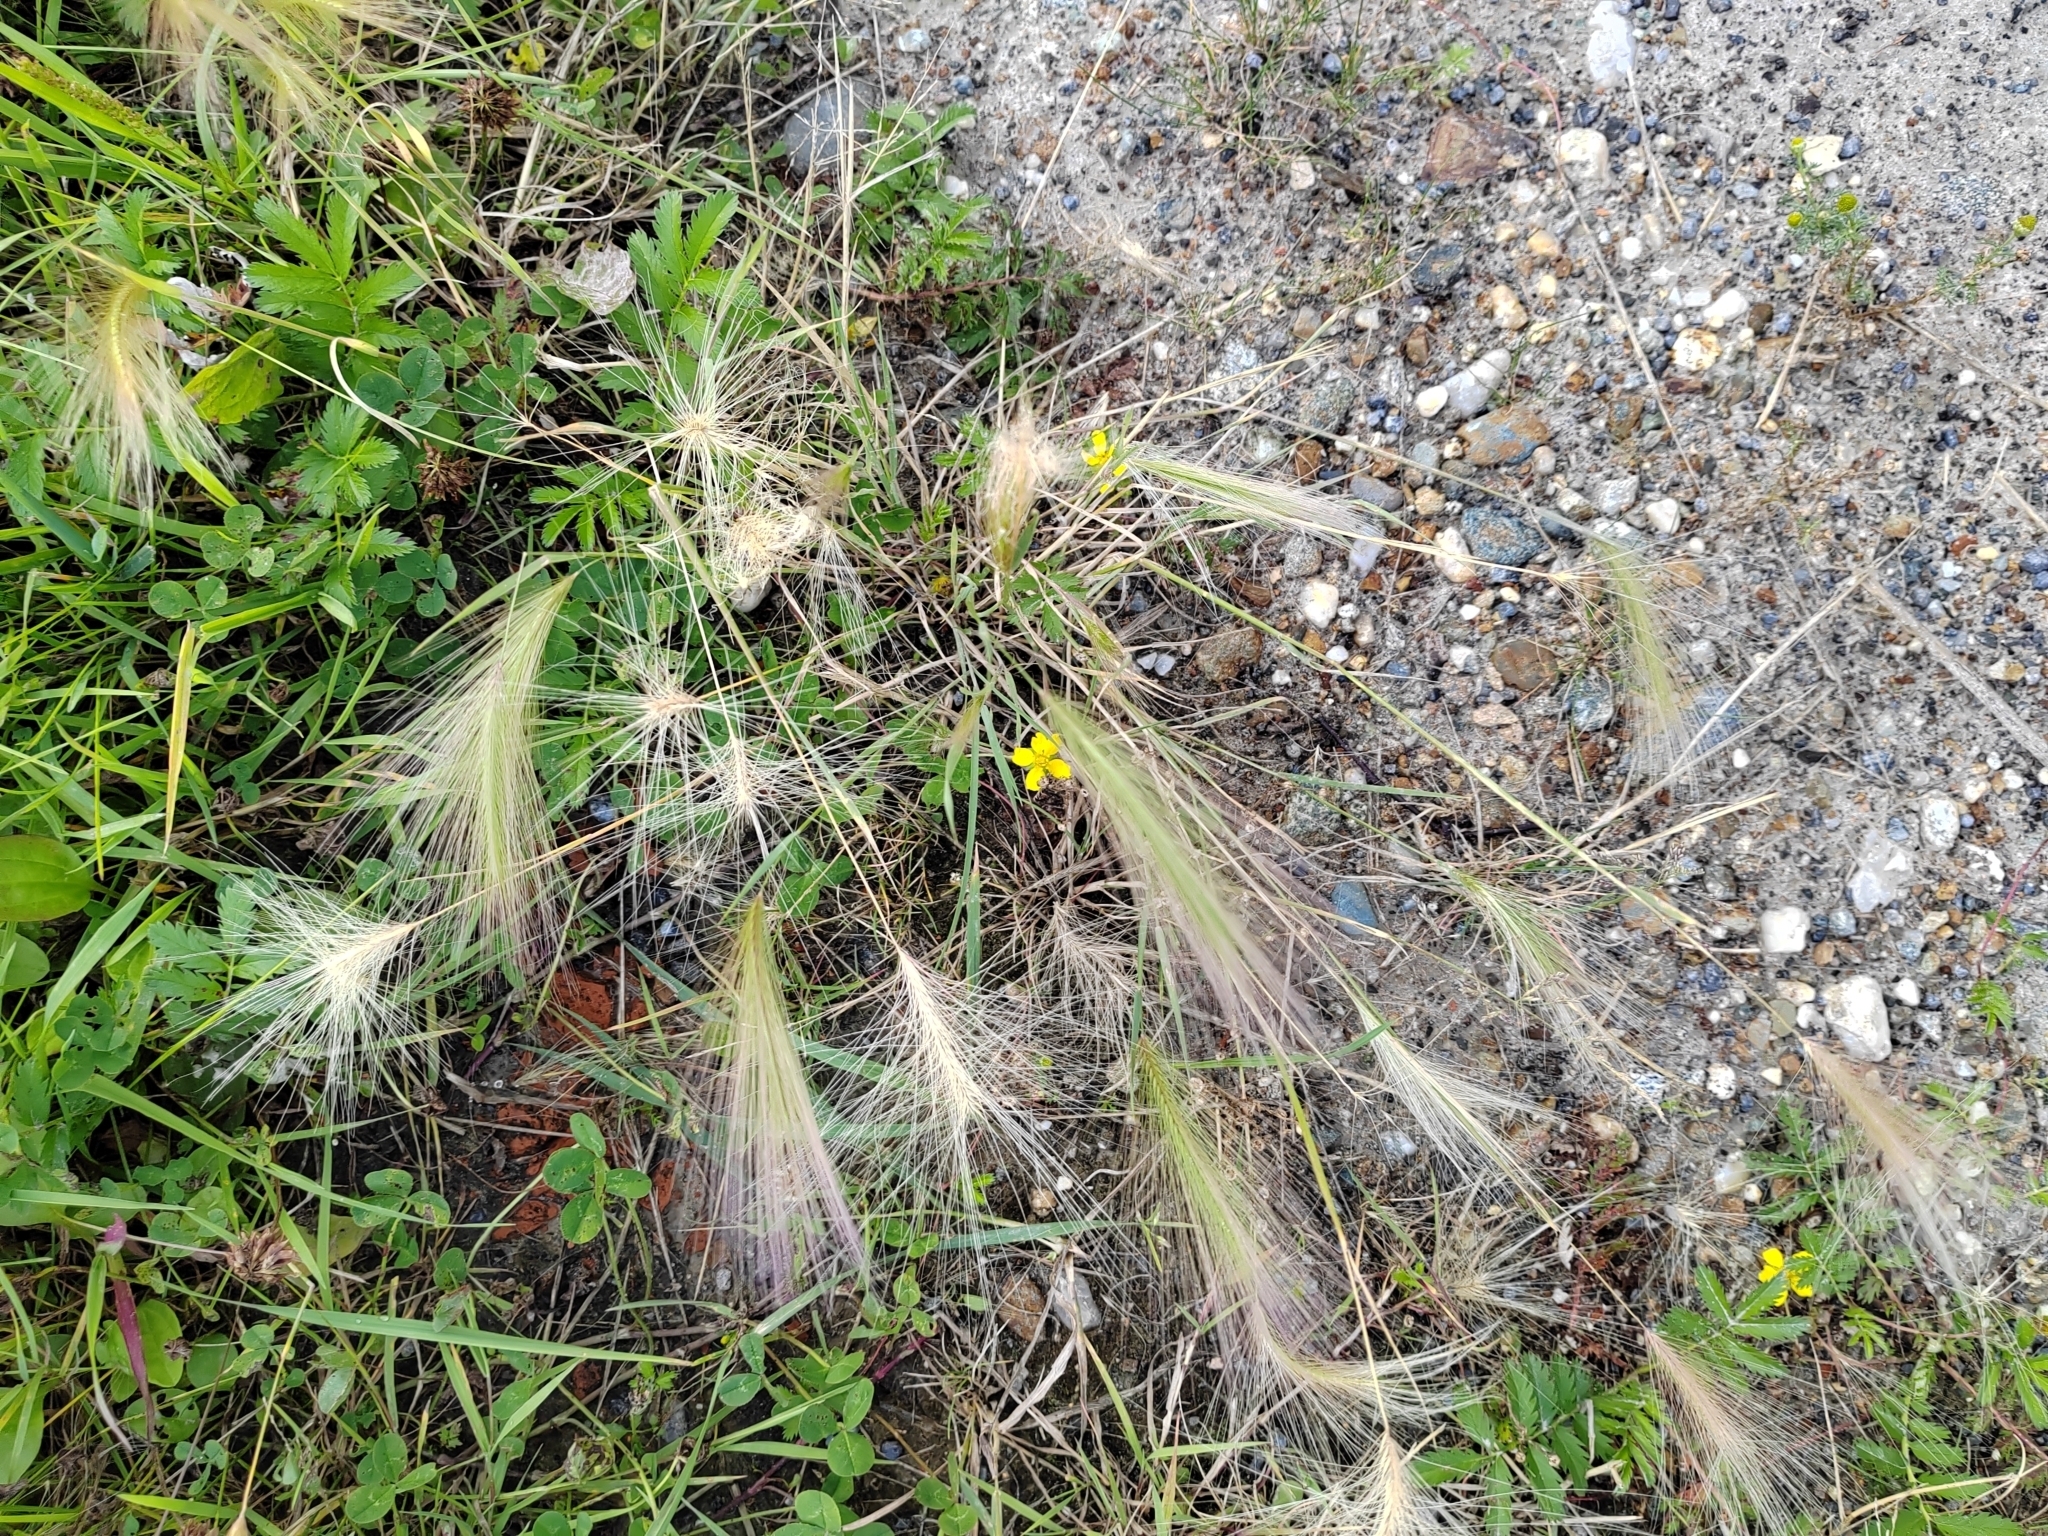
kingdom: Plantae
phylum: Tracheophyta
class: Liliopsida
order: Poales
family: Poaceae
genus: Hordeum
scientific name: Hordeum jubatum
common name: Foxtail barley
